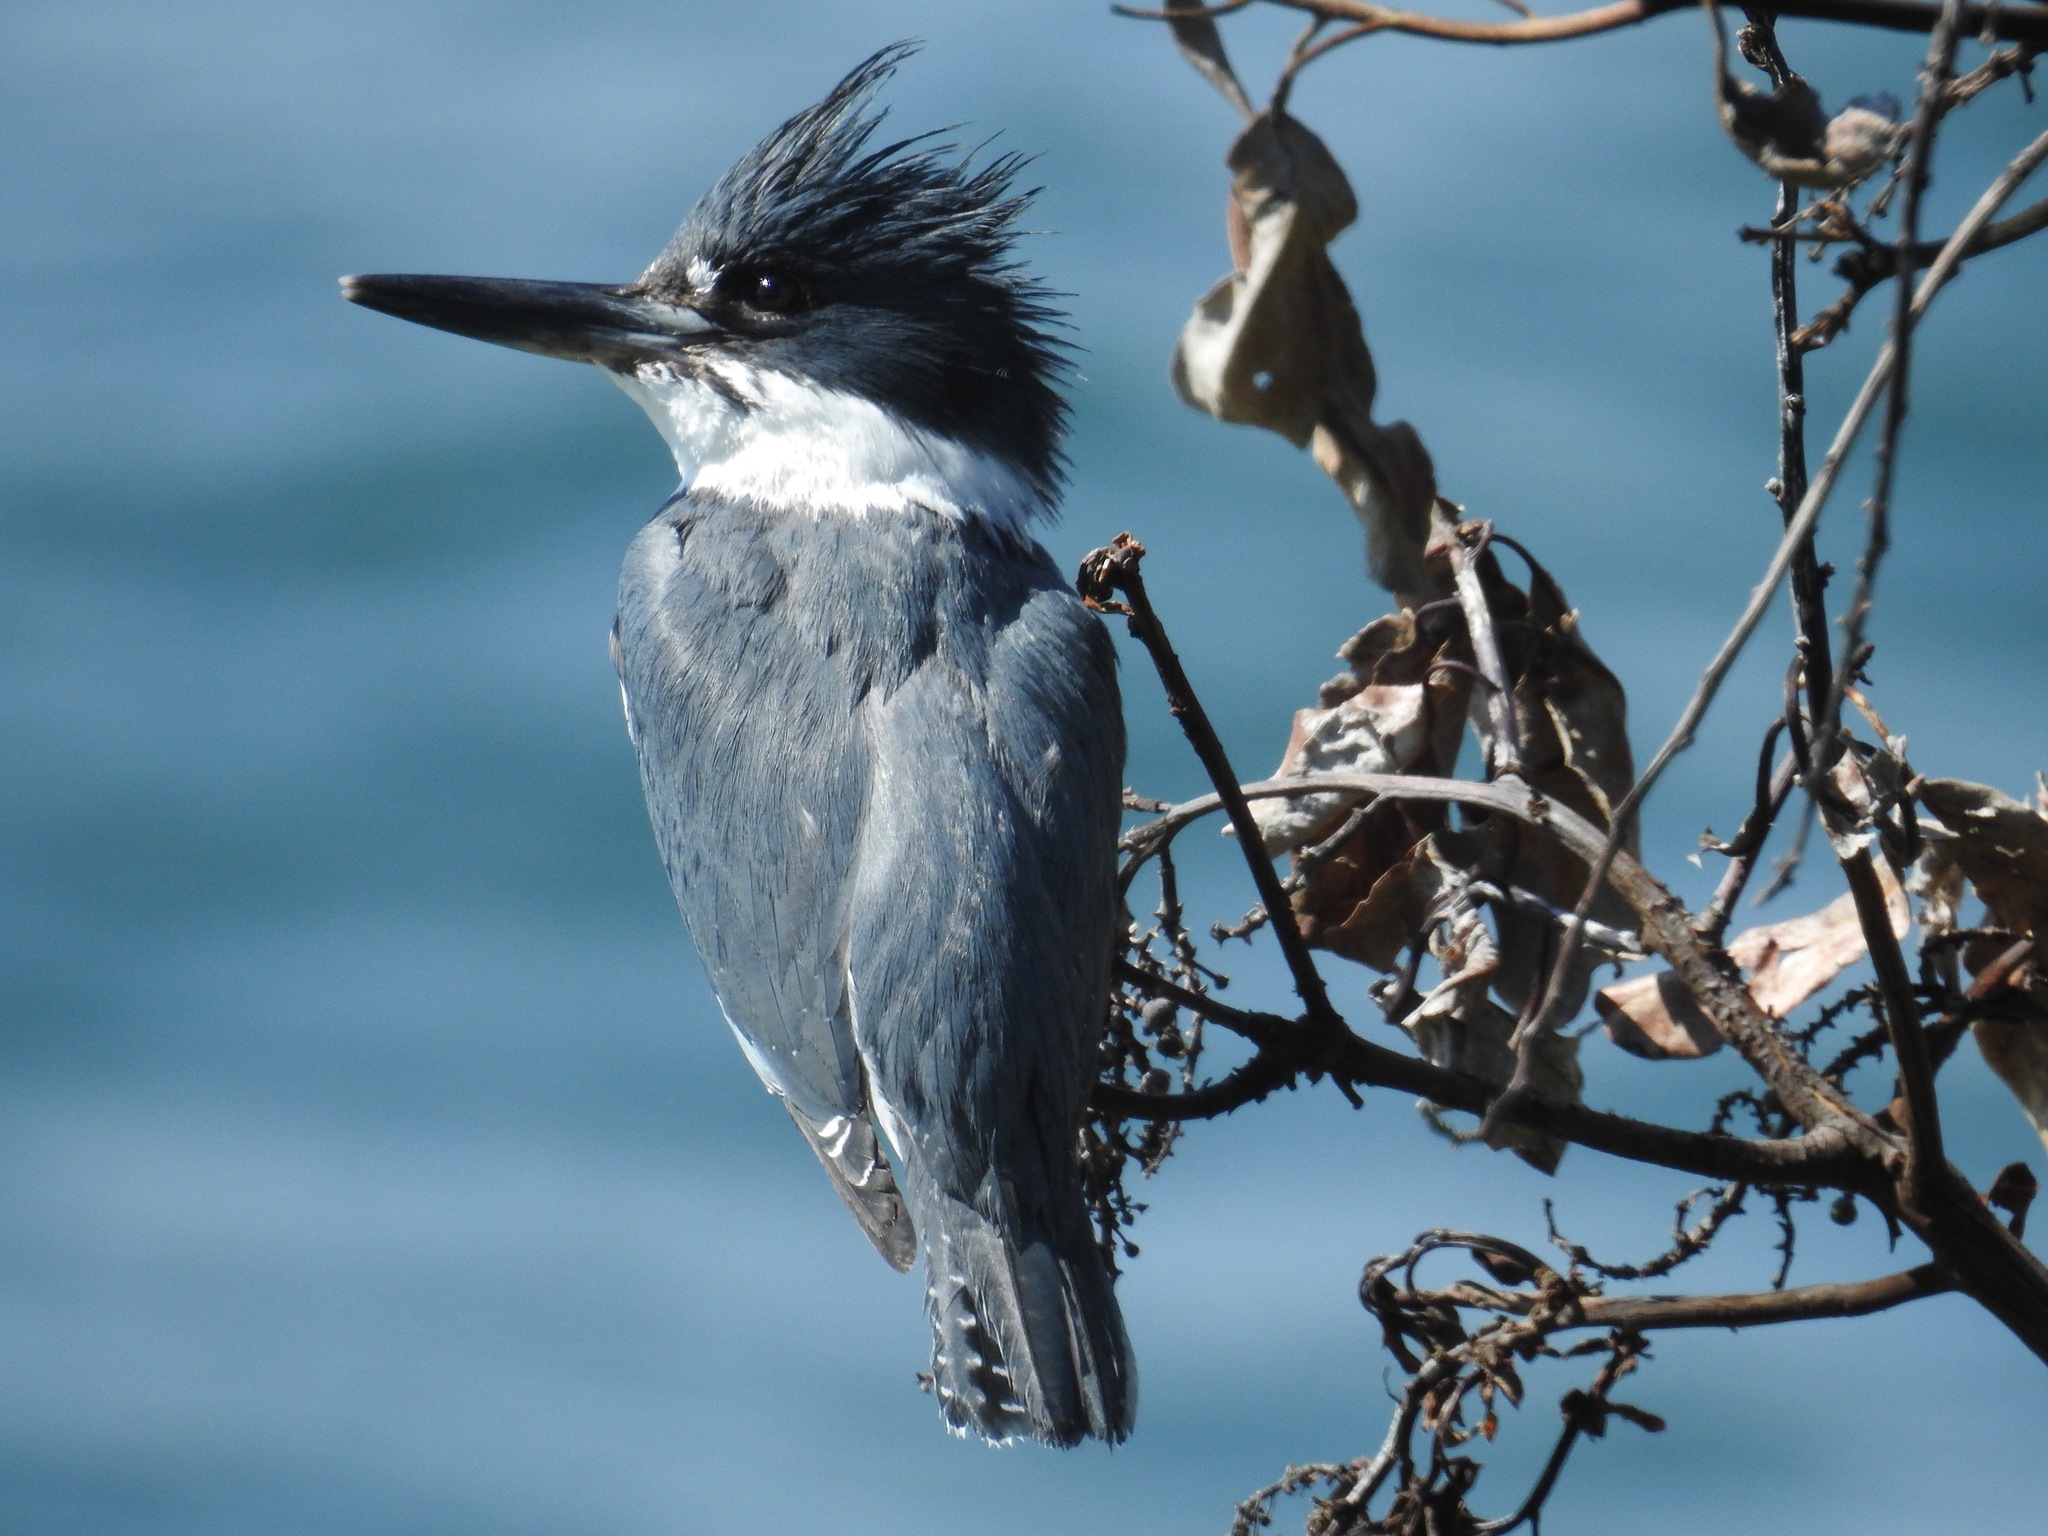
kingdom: Animalia
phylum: Chordata
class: Aves
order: Coraciiformes
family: Alcedinidae
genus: Megaceryle
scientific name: Megaceryle alcyon
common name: Belted kingfisher
